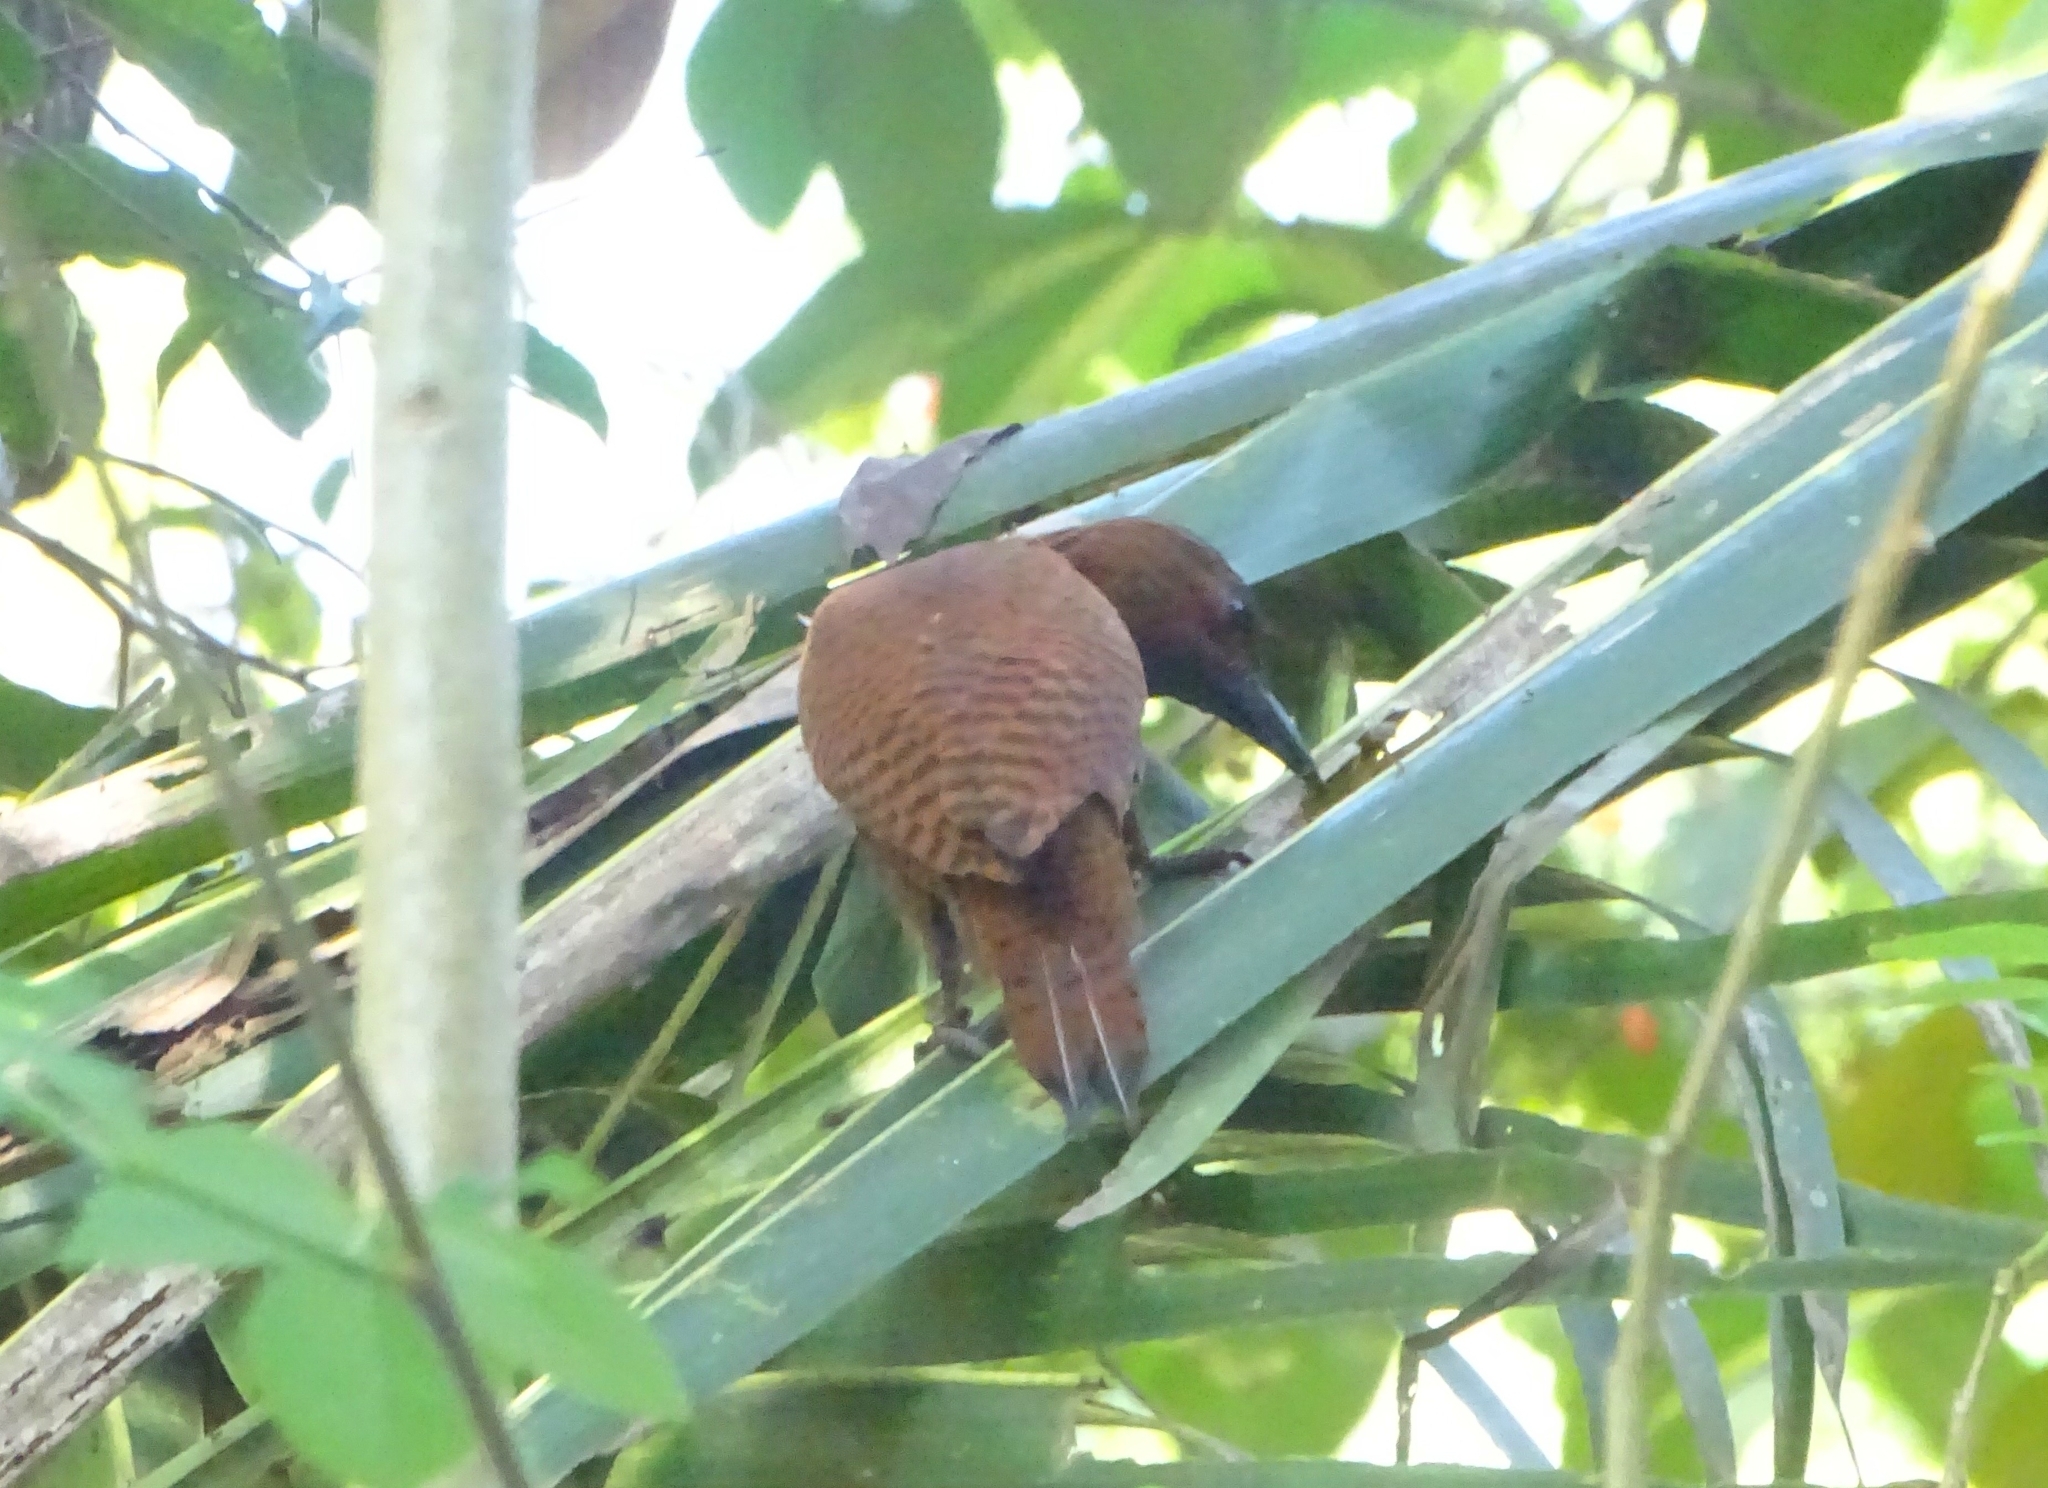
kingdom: Animalia
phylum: Chordata
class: Aves
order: Piciformes
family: Picidae
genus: Micropternus
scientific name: Micropternus brachyurus
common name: Rufous woodpecker
